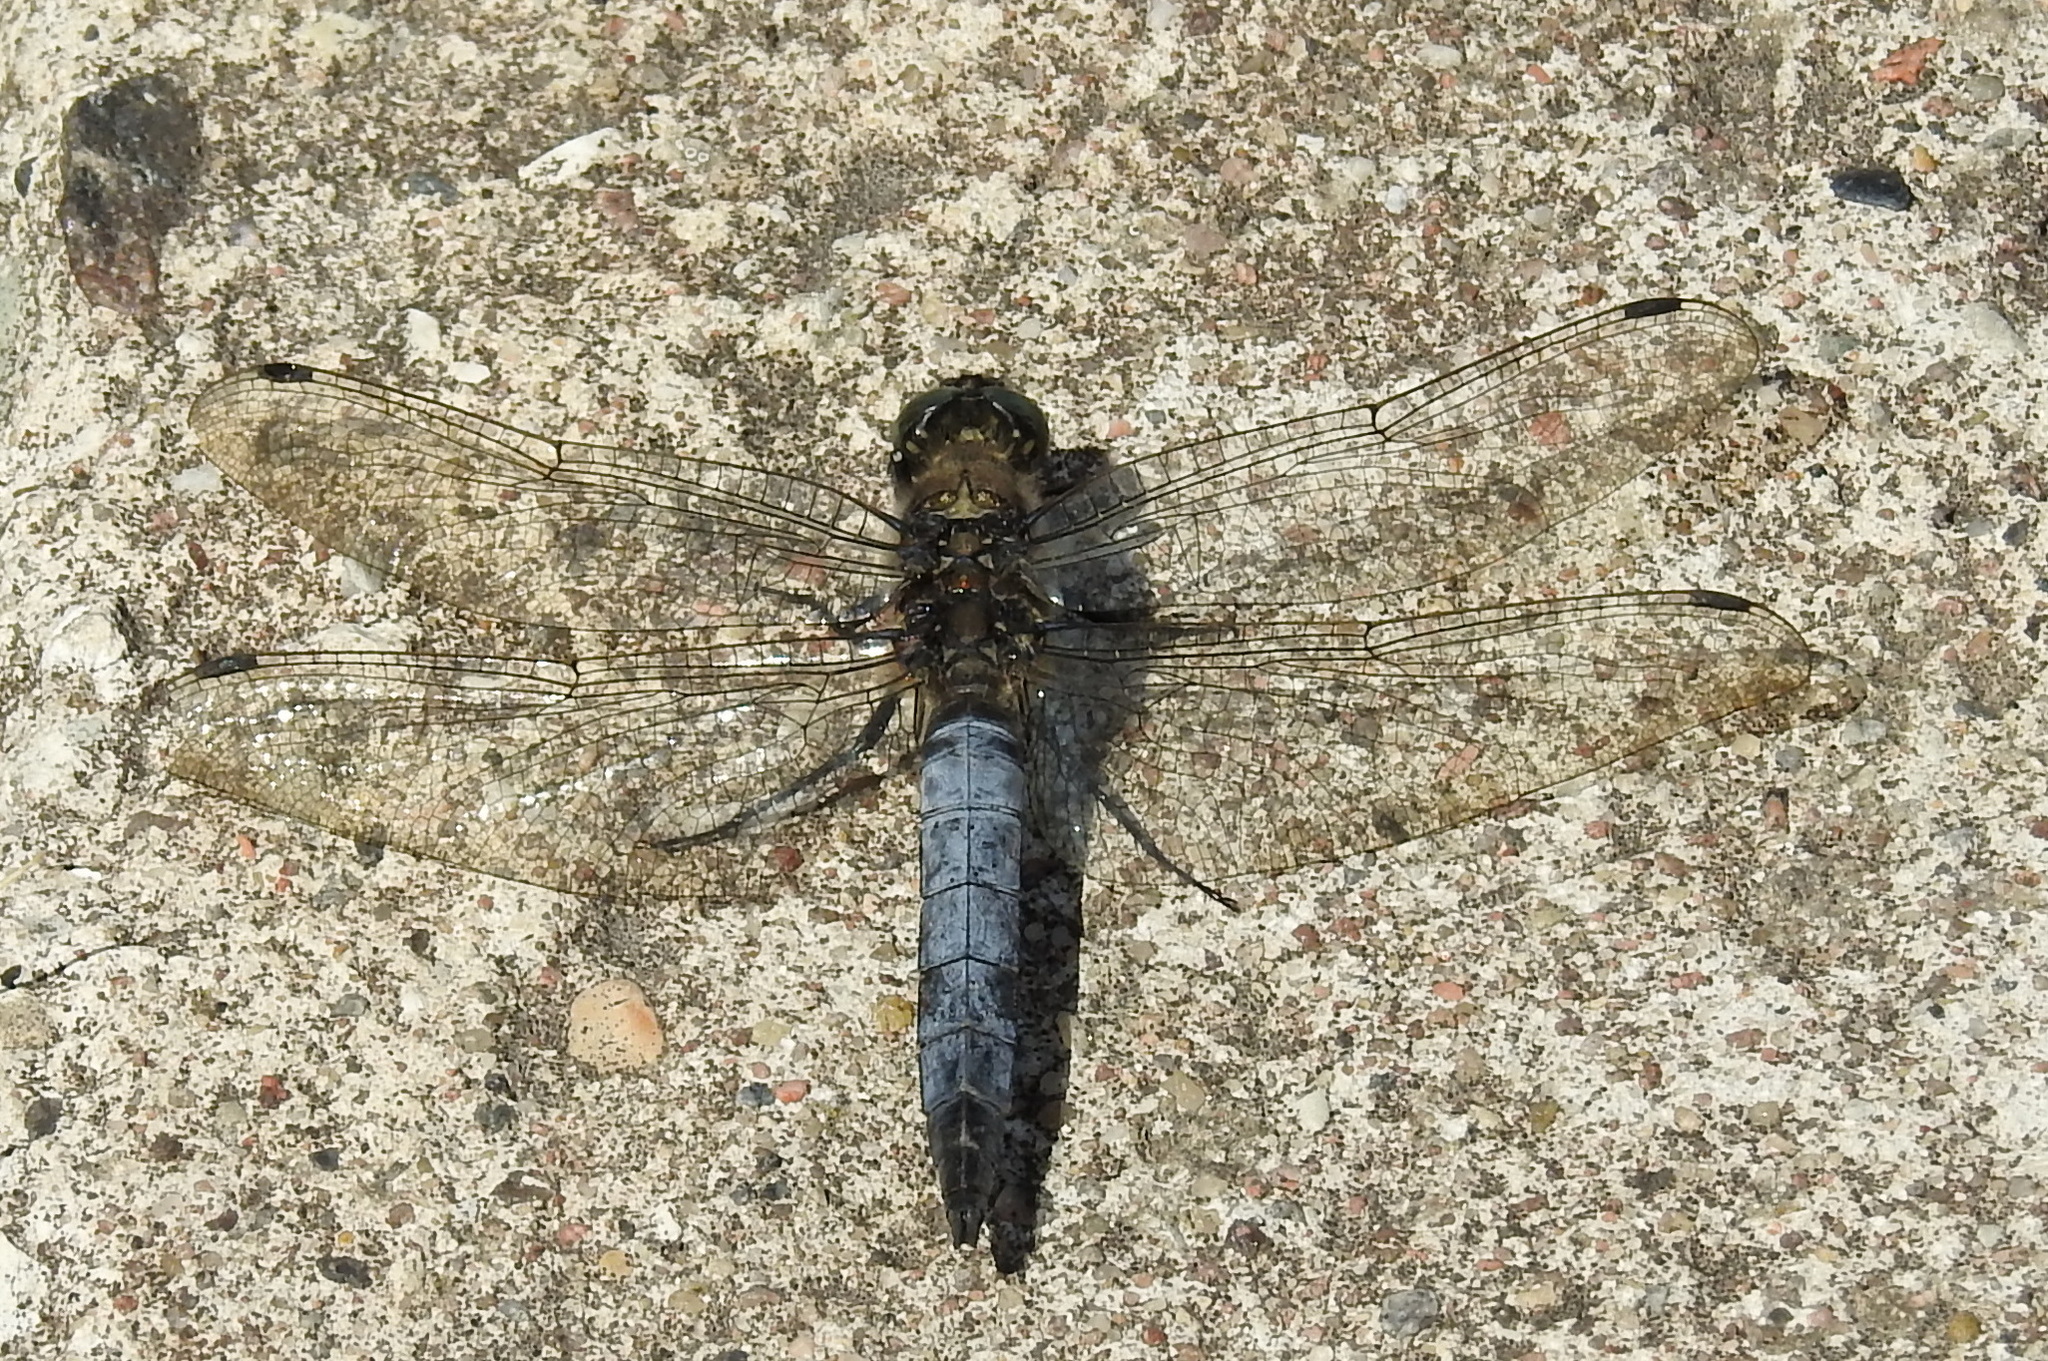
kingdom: Animalia
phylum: Arthropoda
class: Insecta
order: Odonata
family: Libellulidae
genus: Orthetrum
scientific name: Orthetrum cancellatum
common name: Black-tailed skimmer
